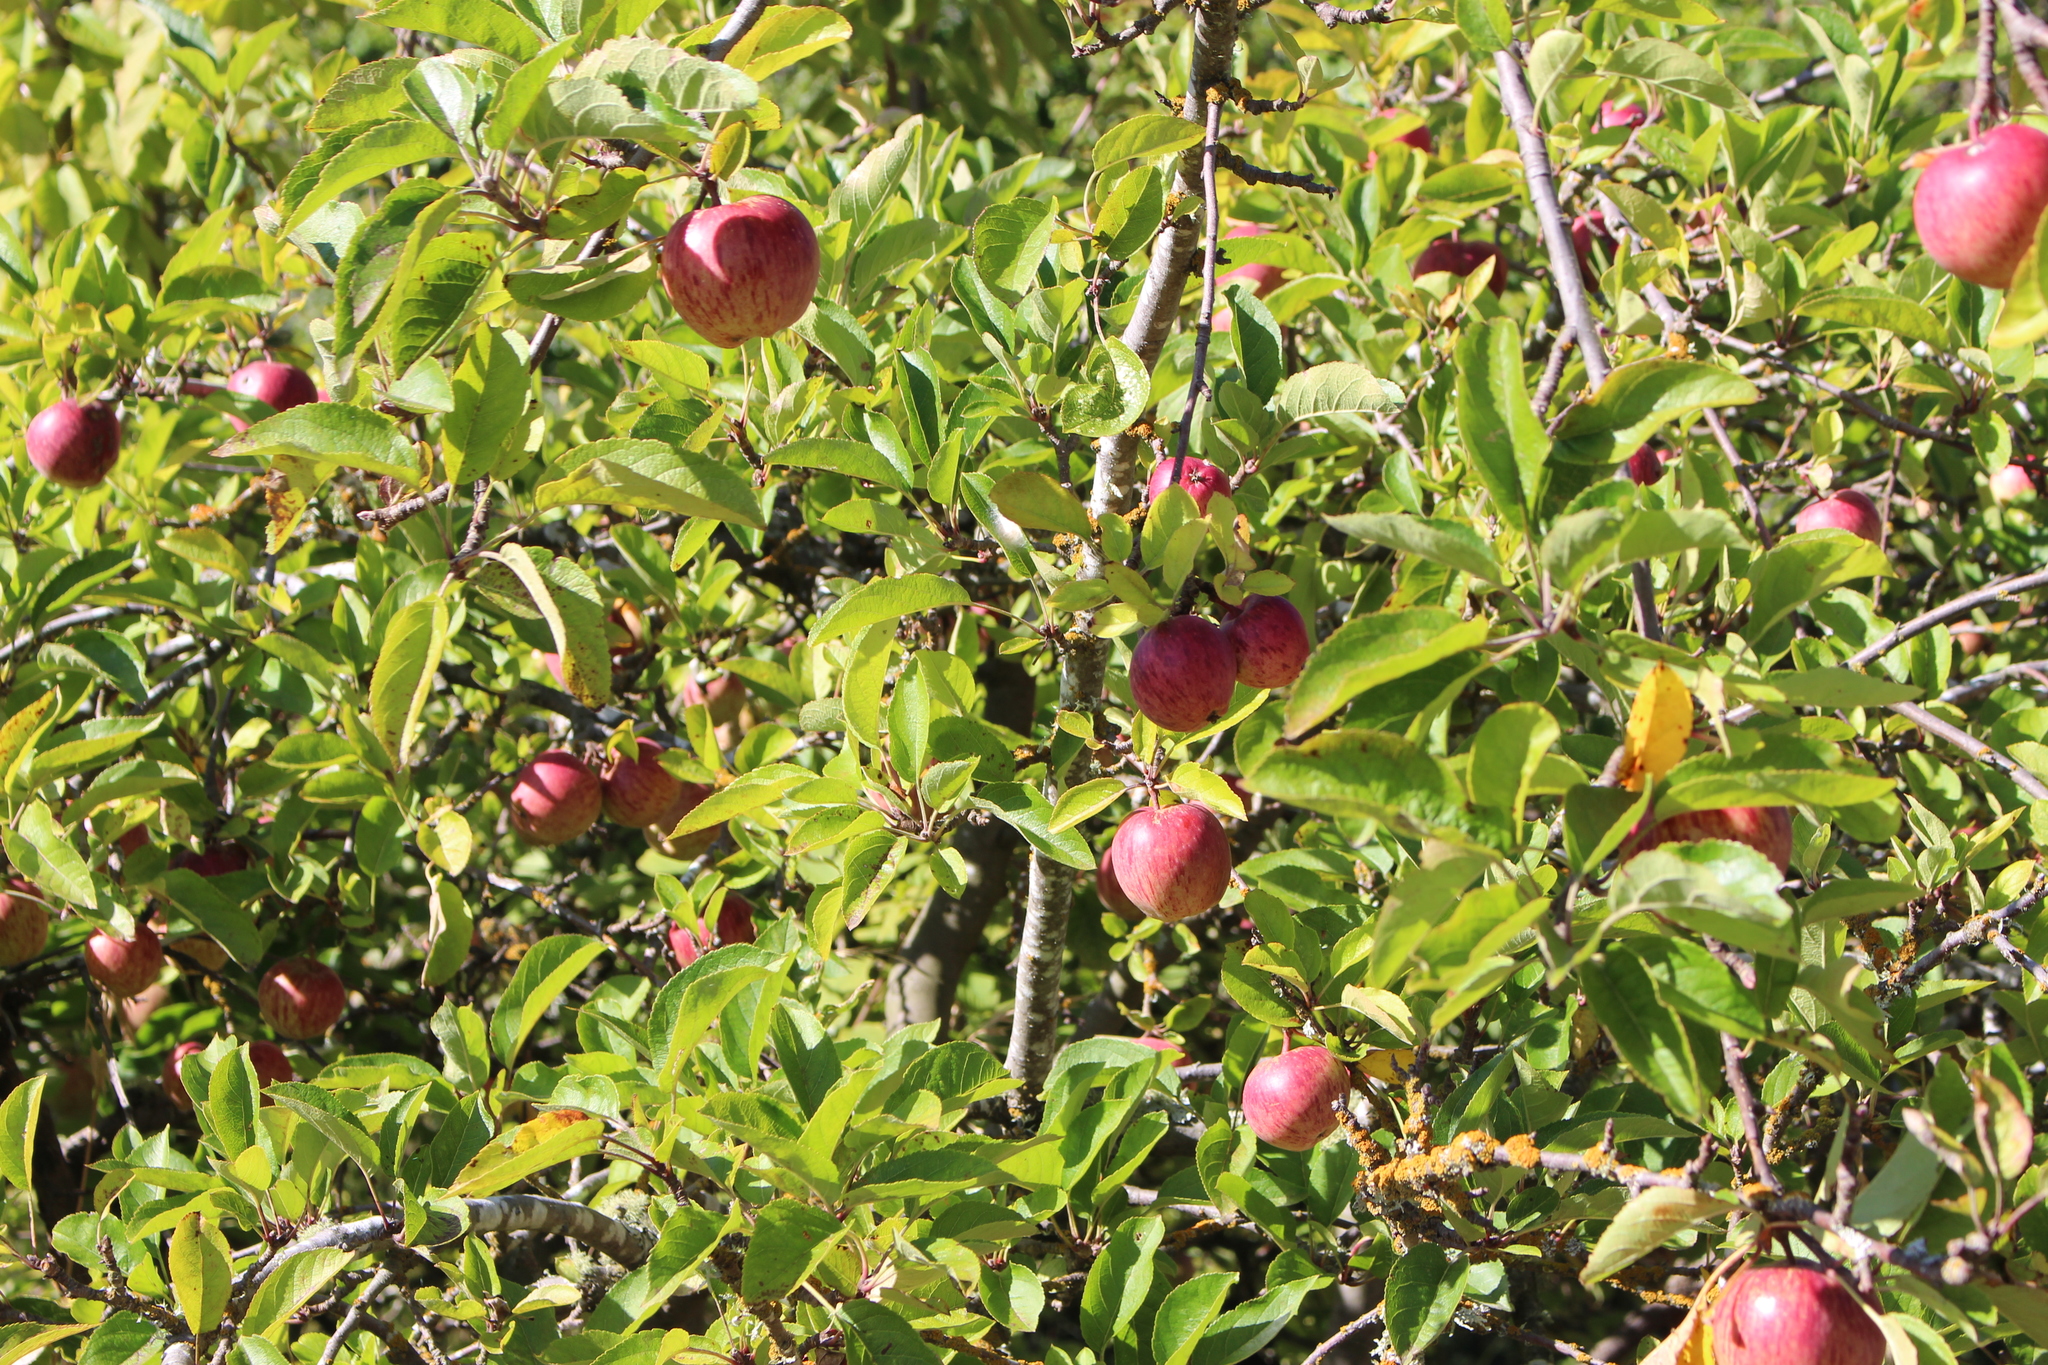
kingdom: Plantae
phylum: Tracheophyta
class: Magnoliopsida
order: Rosales
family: Rosaceae
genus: Malus
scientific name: Malus domestica
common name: Apple
